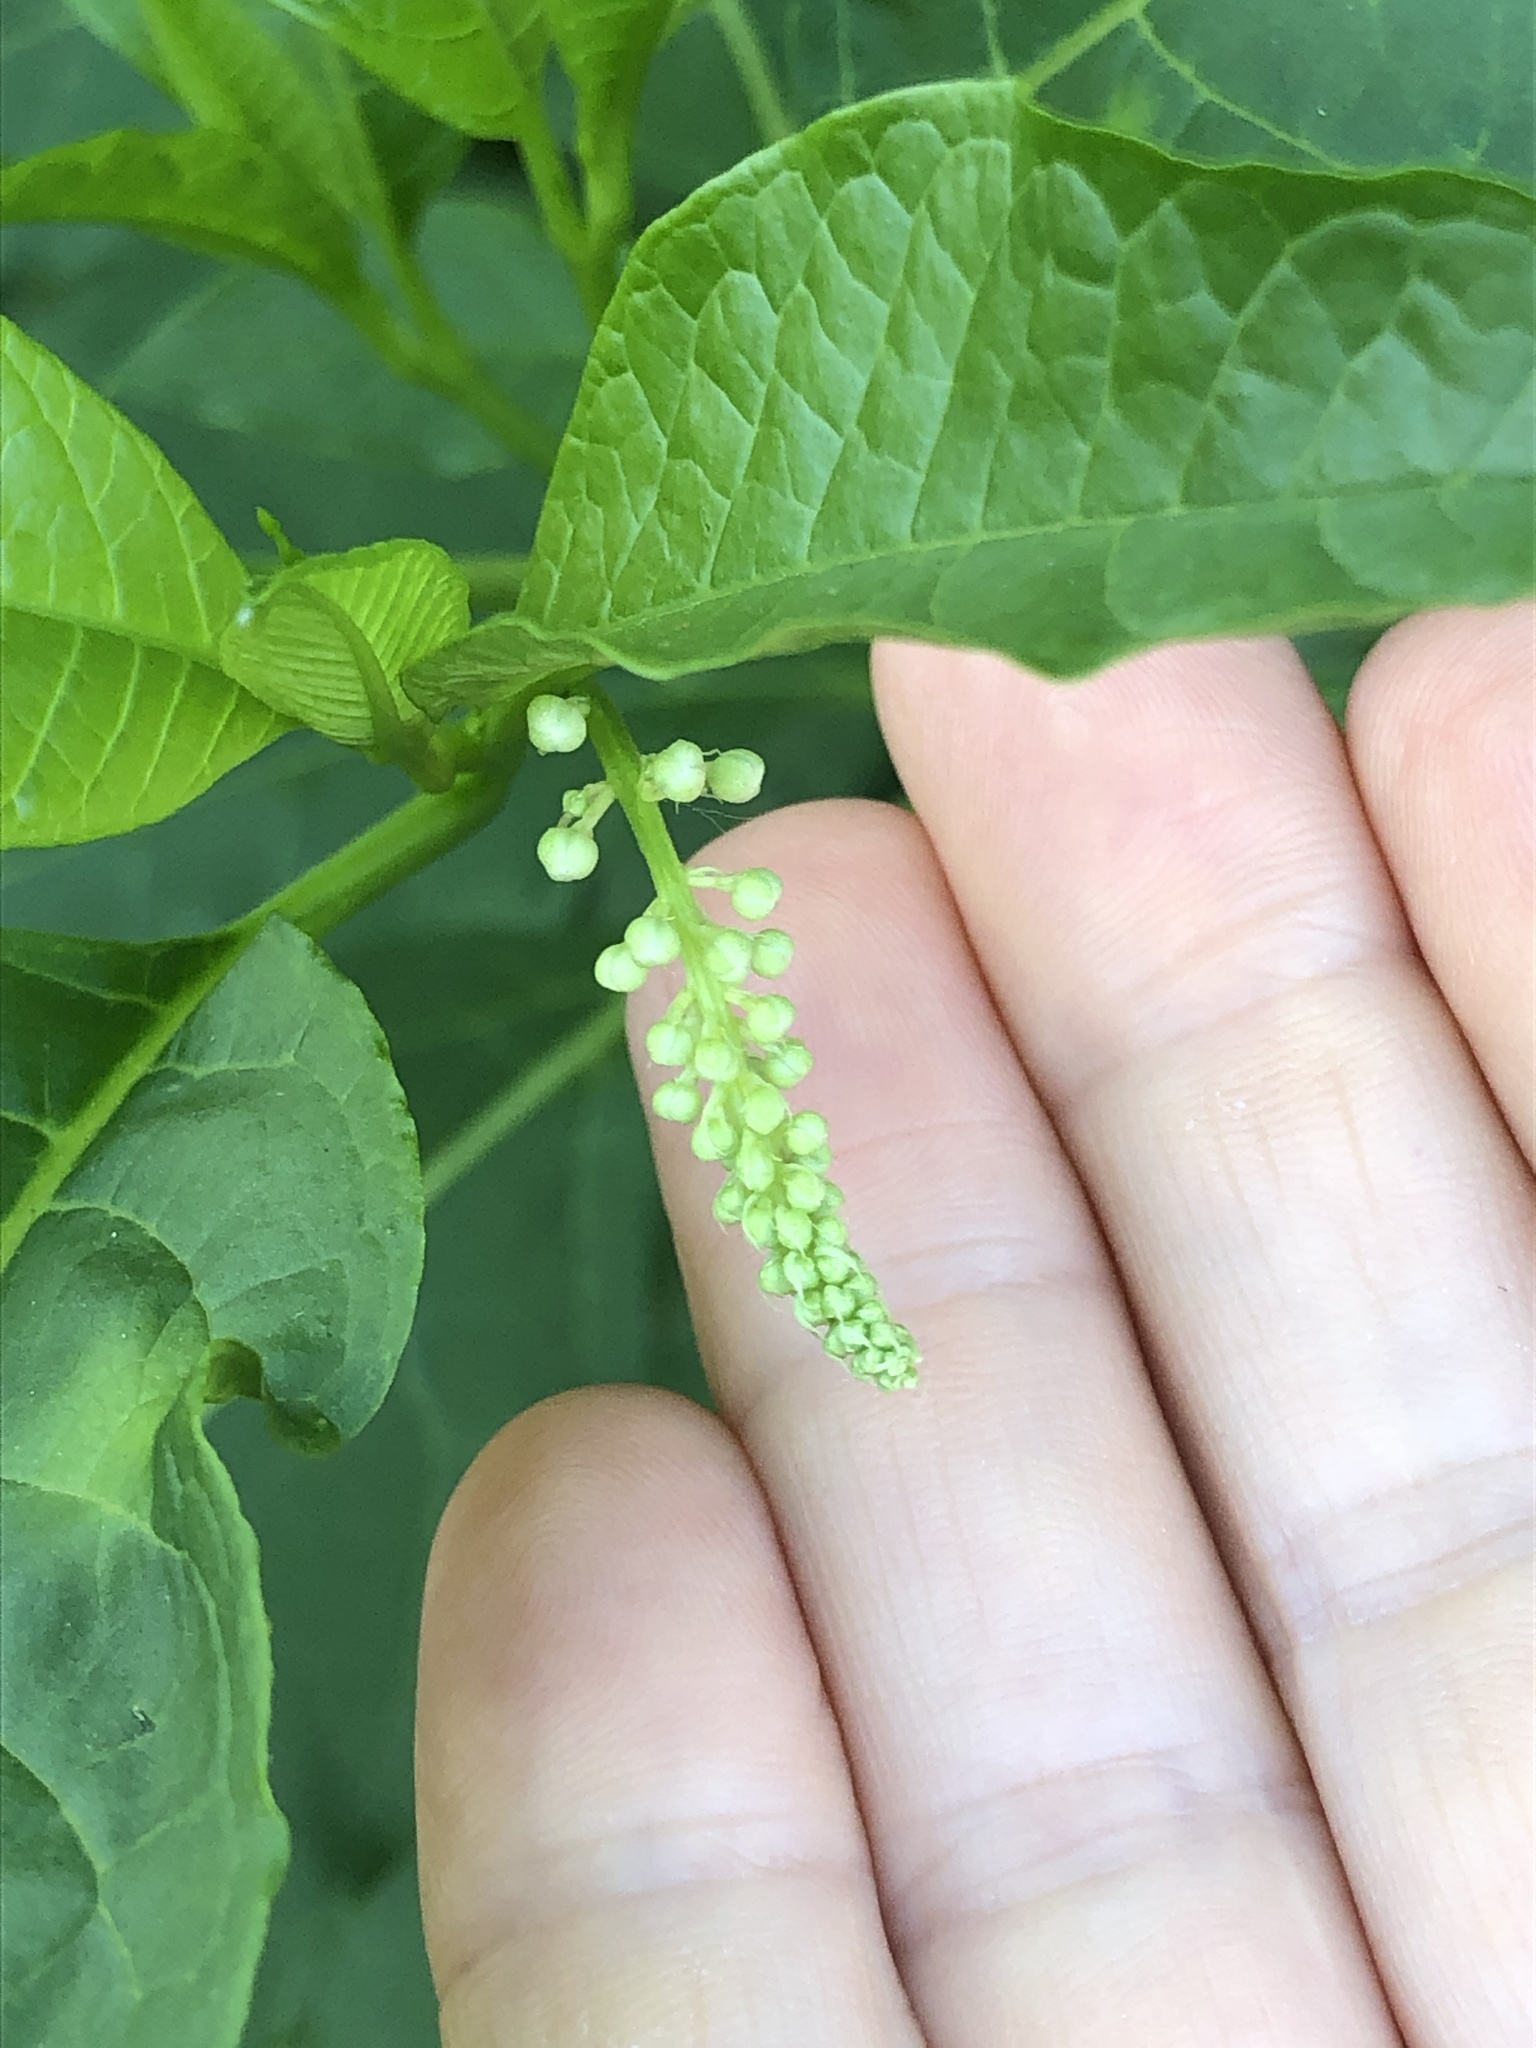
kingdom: Plantae
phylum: Tracheophyta
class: Magnoliopsida
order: Caryophyllales
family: Phytolaccaceae
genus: Phytolacca
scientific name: Phytolacca americana
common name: American pokeweed
